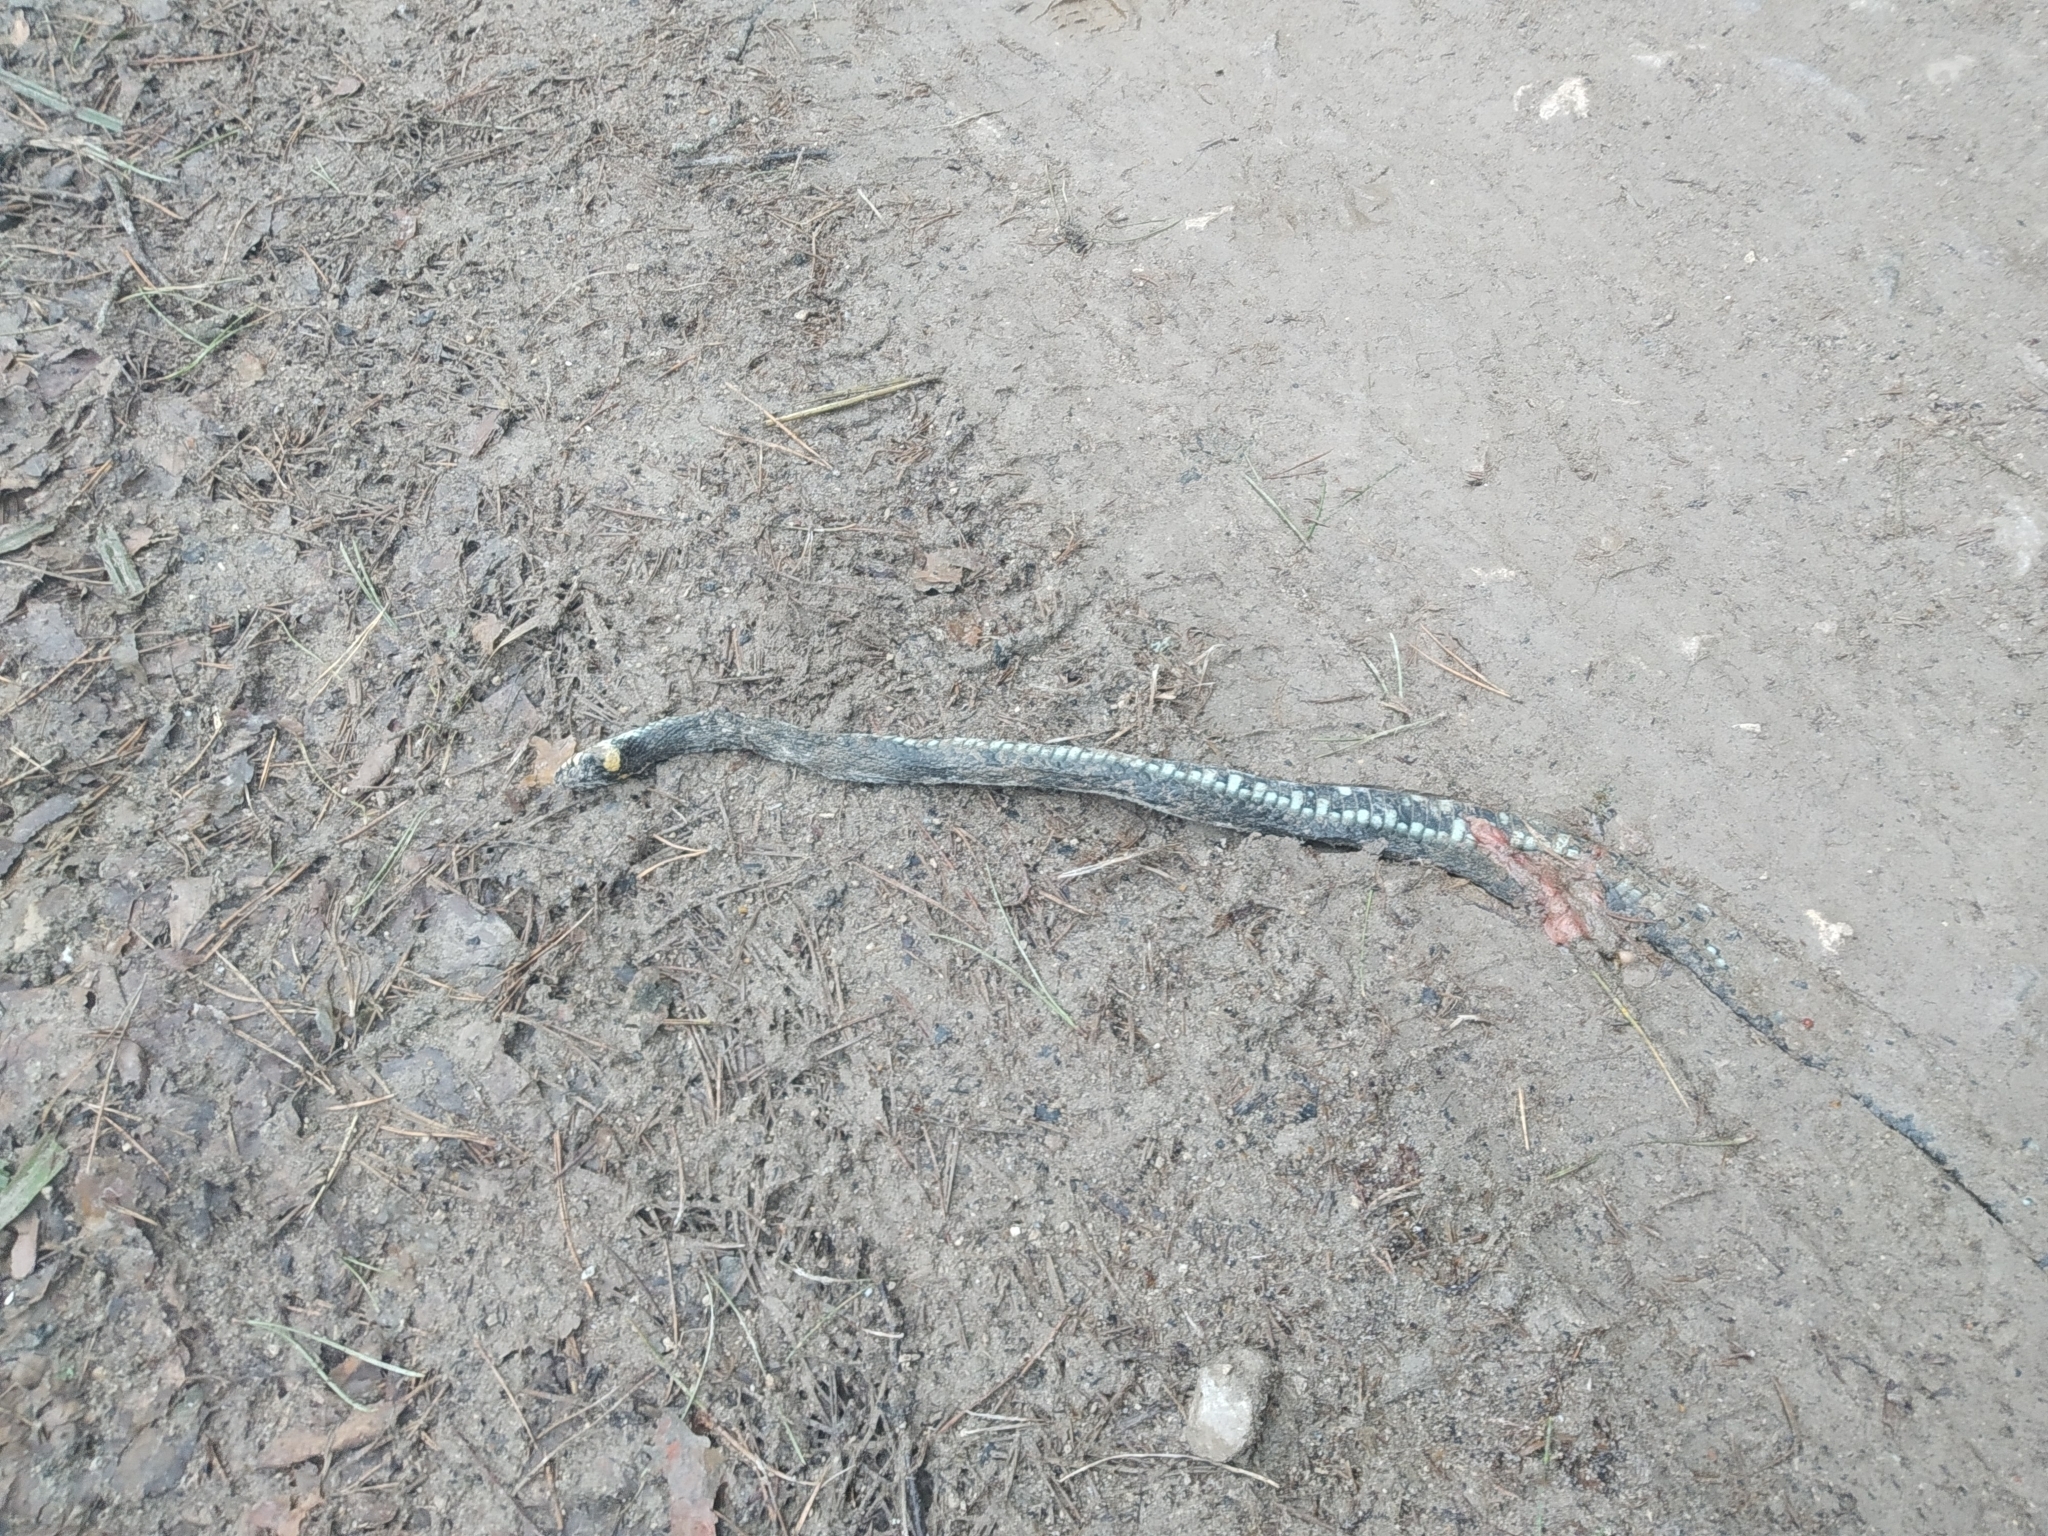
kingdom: Animalia
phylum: Chordata
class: Squamata
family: Colubridae
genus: Natrix
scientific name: Natrix natrix
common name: Grass snake
